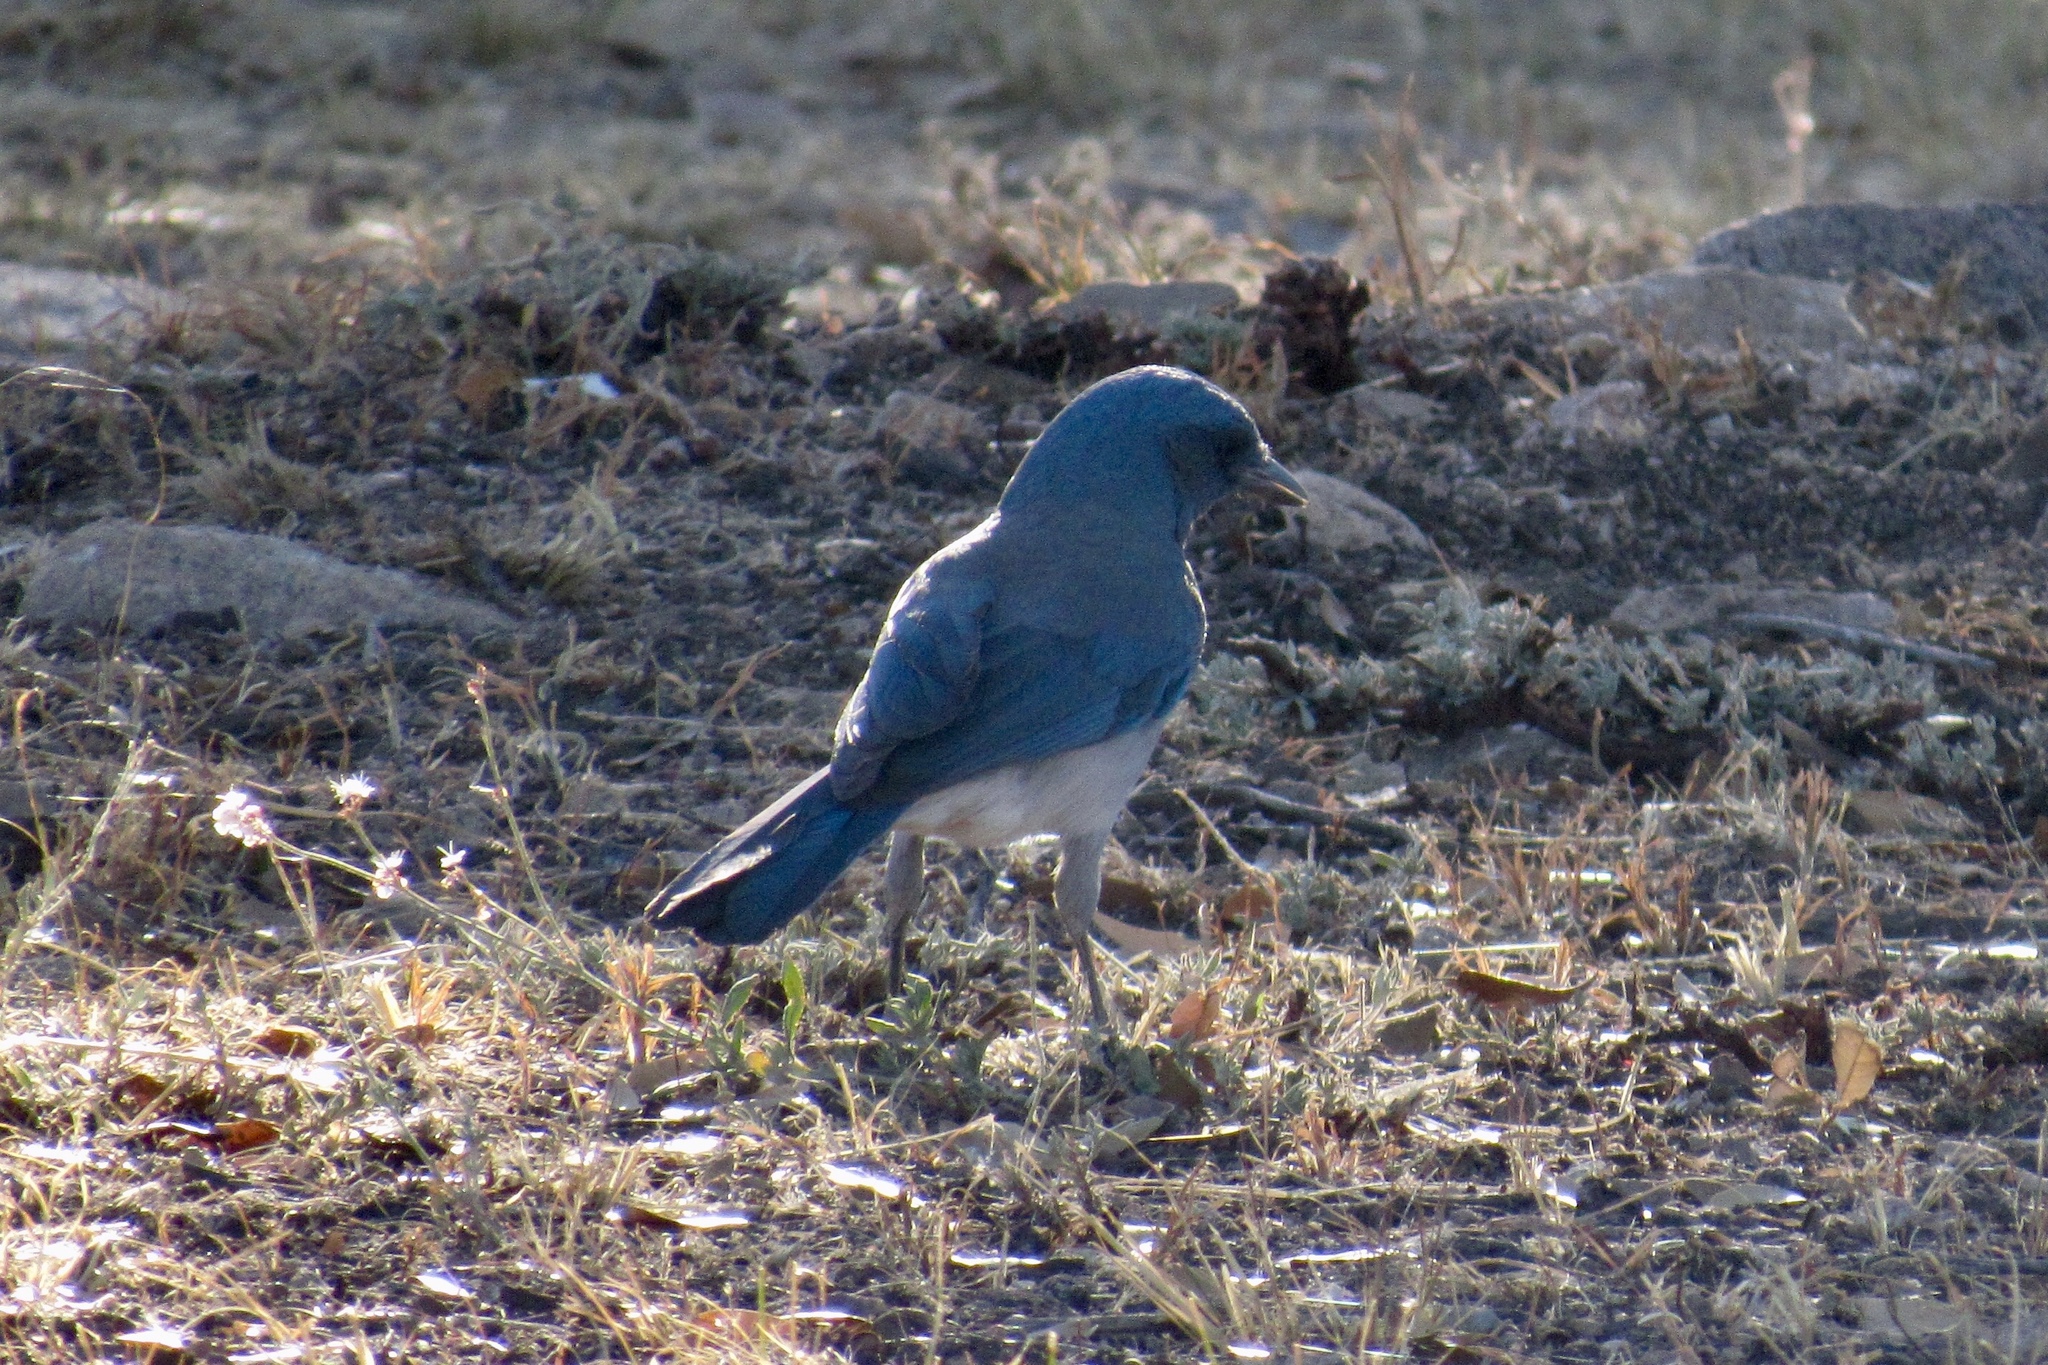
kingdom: Animalia
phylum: Chordata
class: Aves
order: Passeriformes
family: Corvidae
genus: Aphelocoma
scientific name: Aphelocoma wollweberi
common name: Mexican jay
